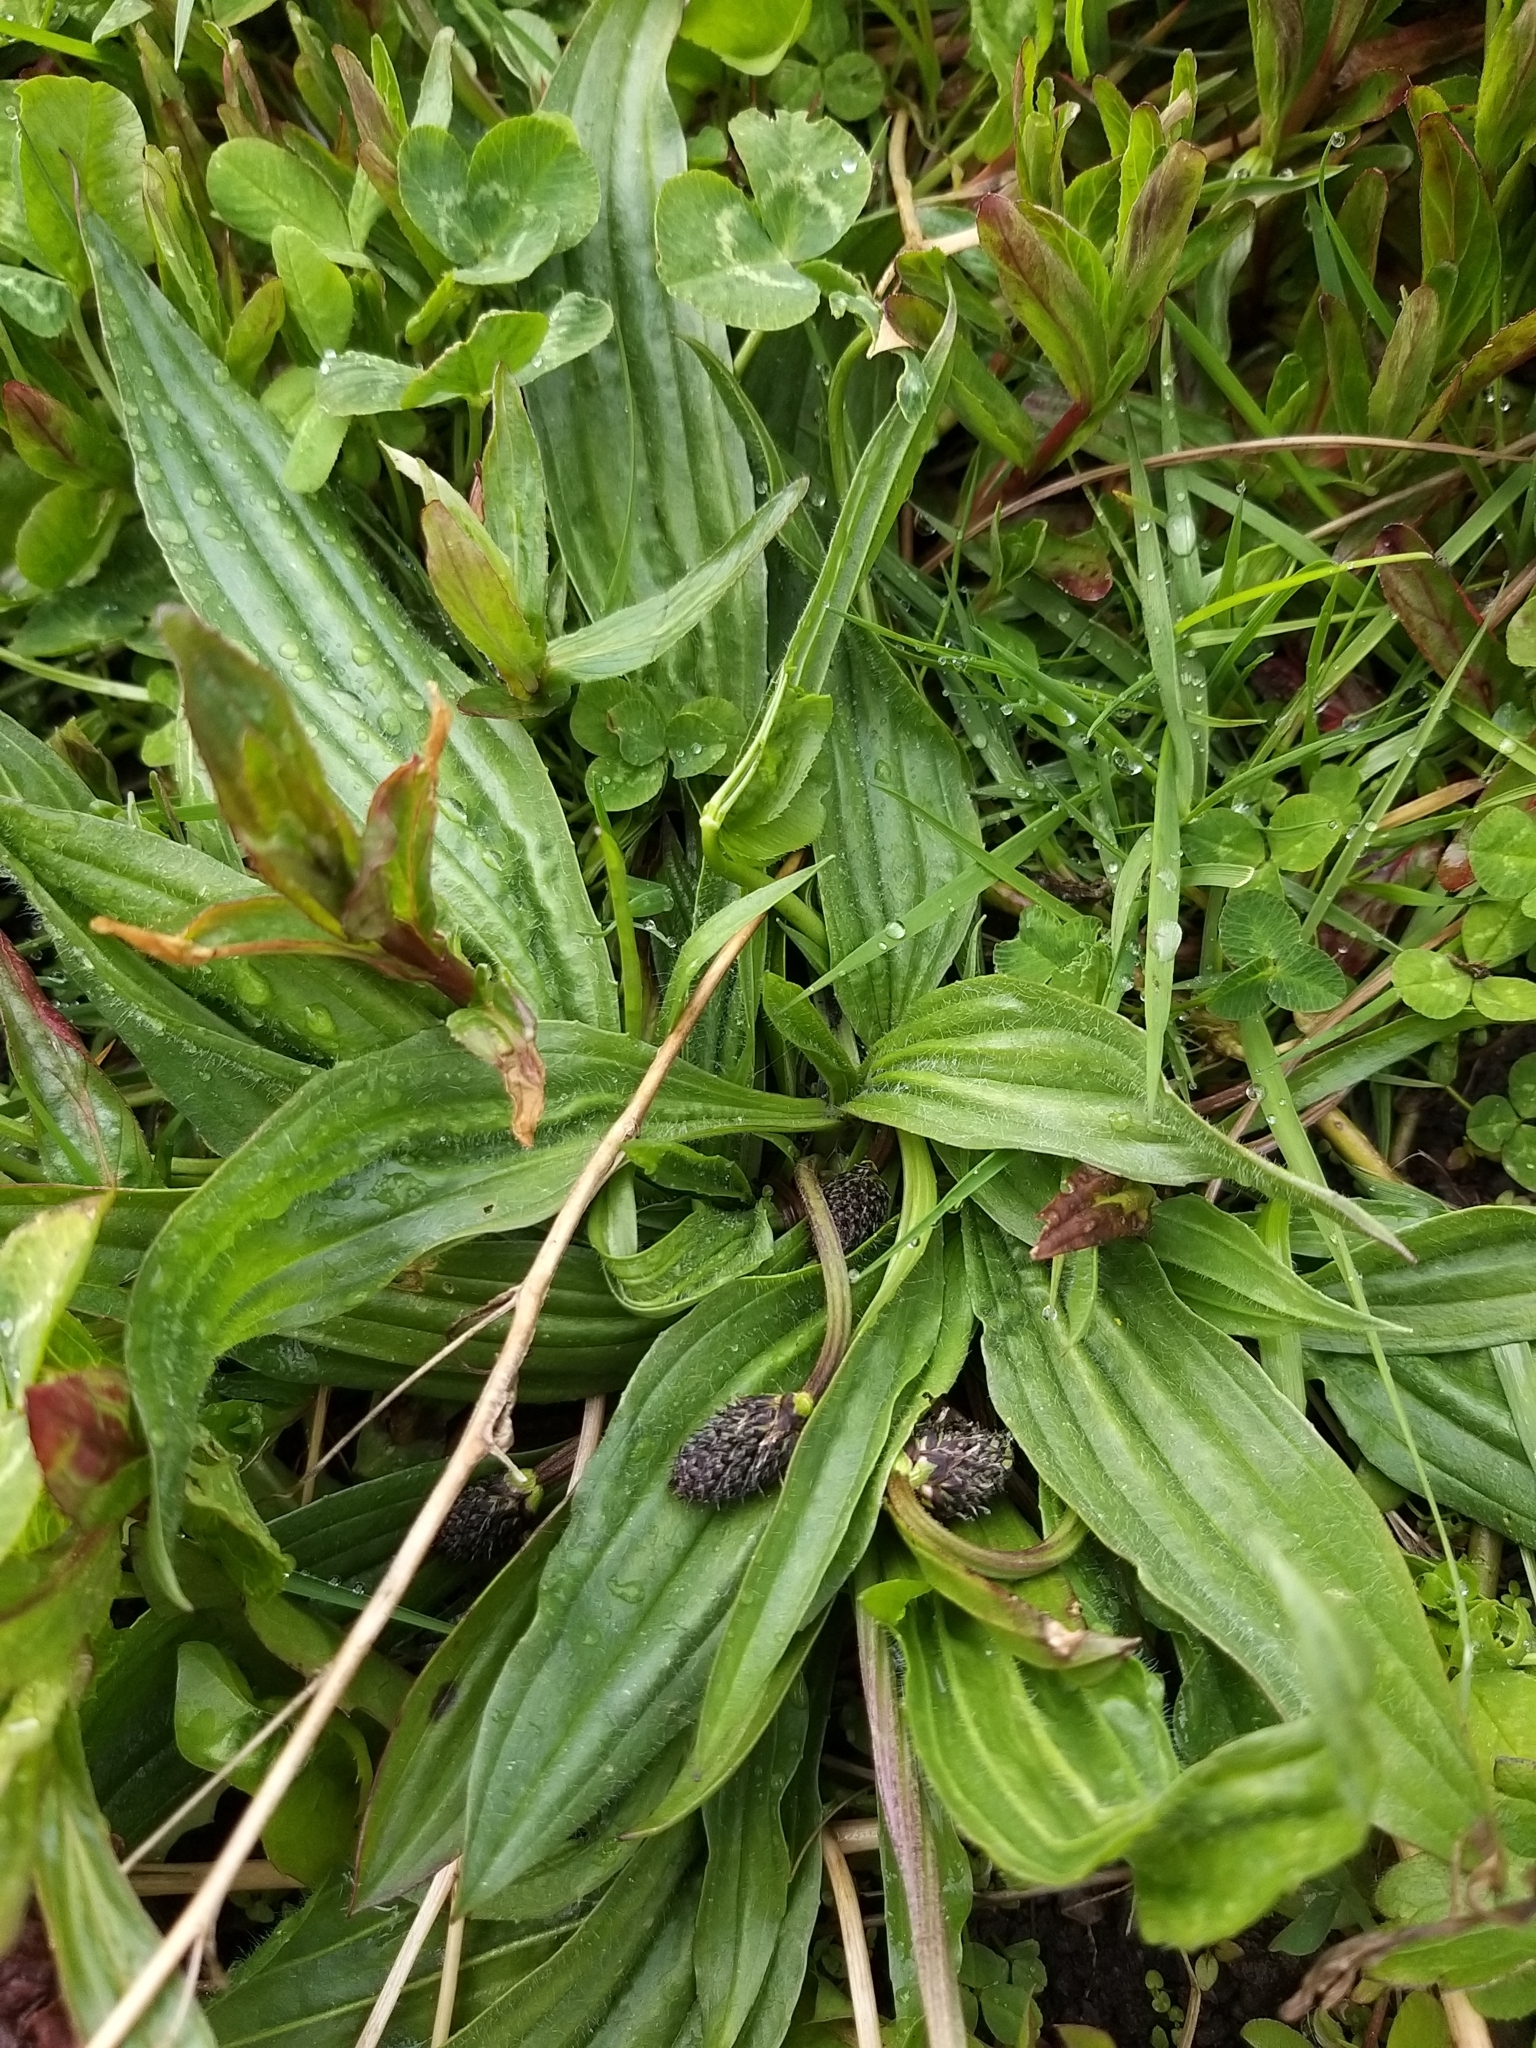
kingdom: Plantae
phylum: Tracheophyta
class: Magnoliopsida
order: Lamiales
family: Plantaginaceae
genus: Plantago
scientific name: Plantago lanceolata
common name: Ribwort plantain
